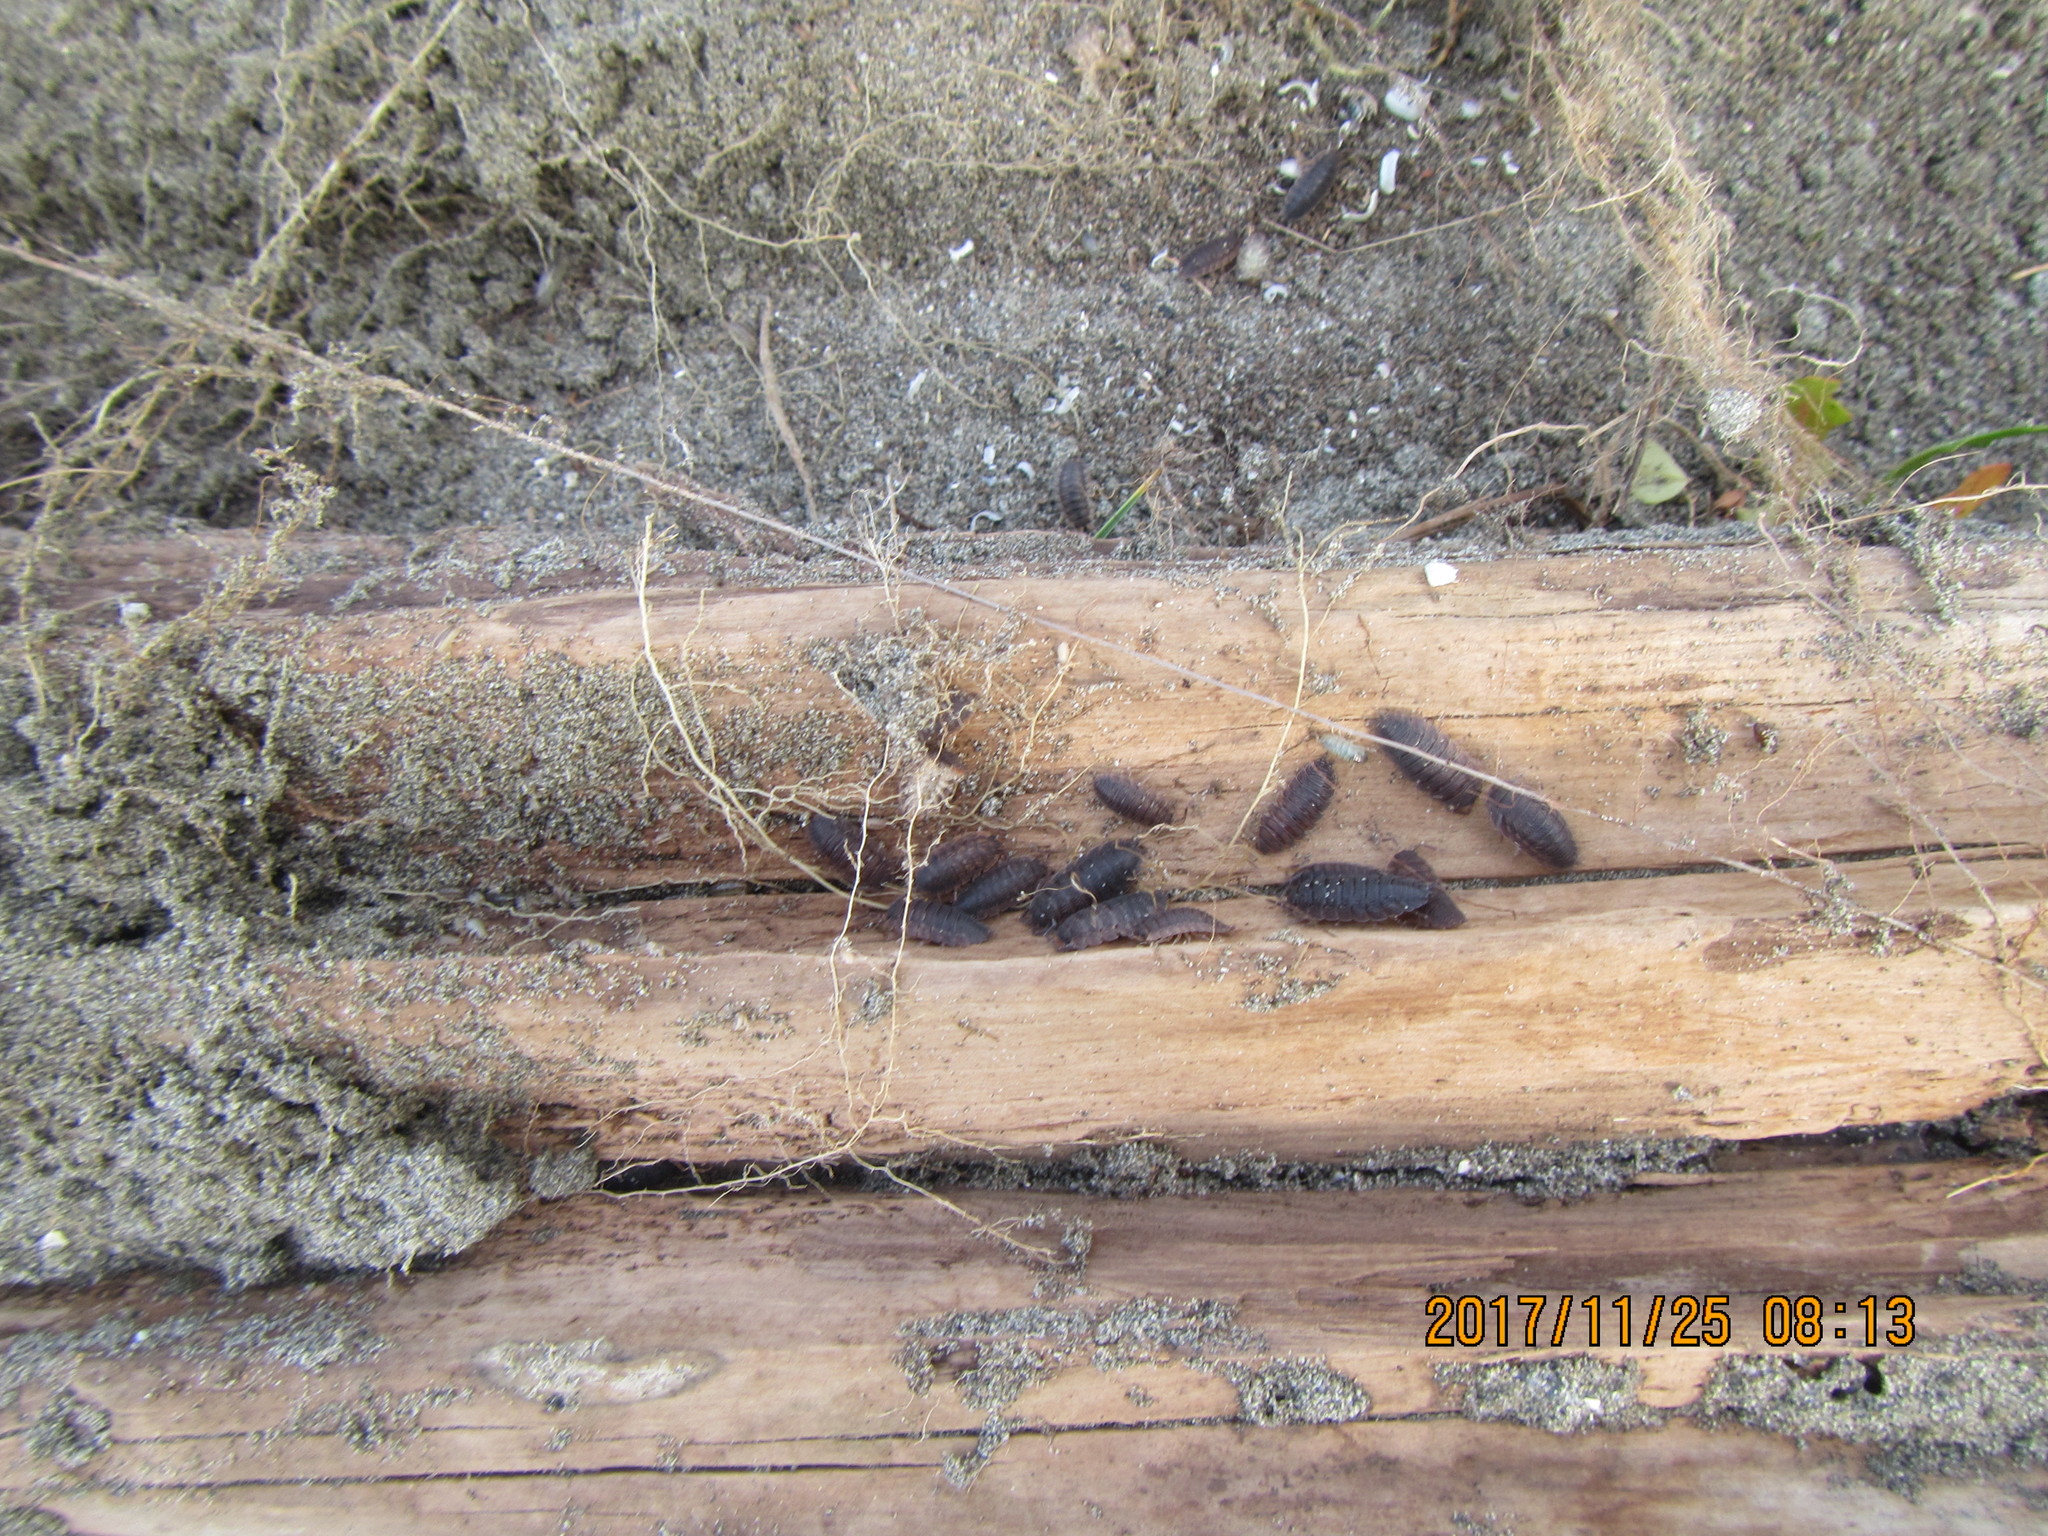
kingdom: Animalia
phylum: Arthropoda
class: Malacostraca
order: Isopoda
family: Porcellionidae
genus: Porcellio
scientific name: Porcellio scaber
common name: Common rough woodlouse
